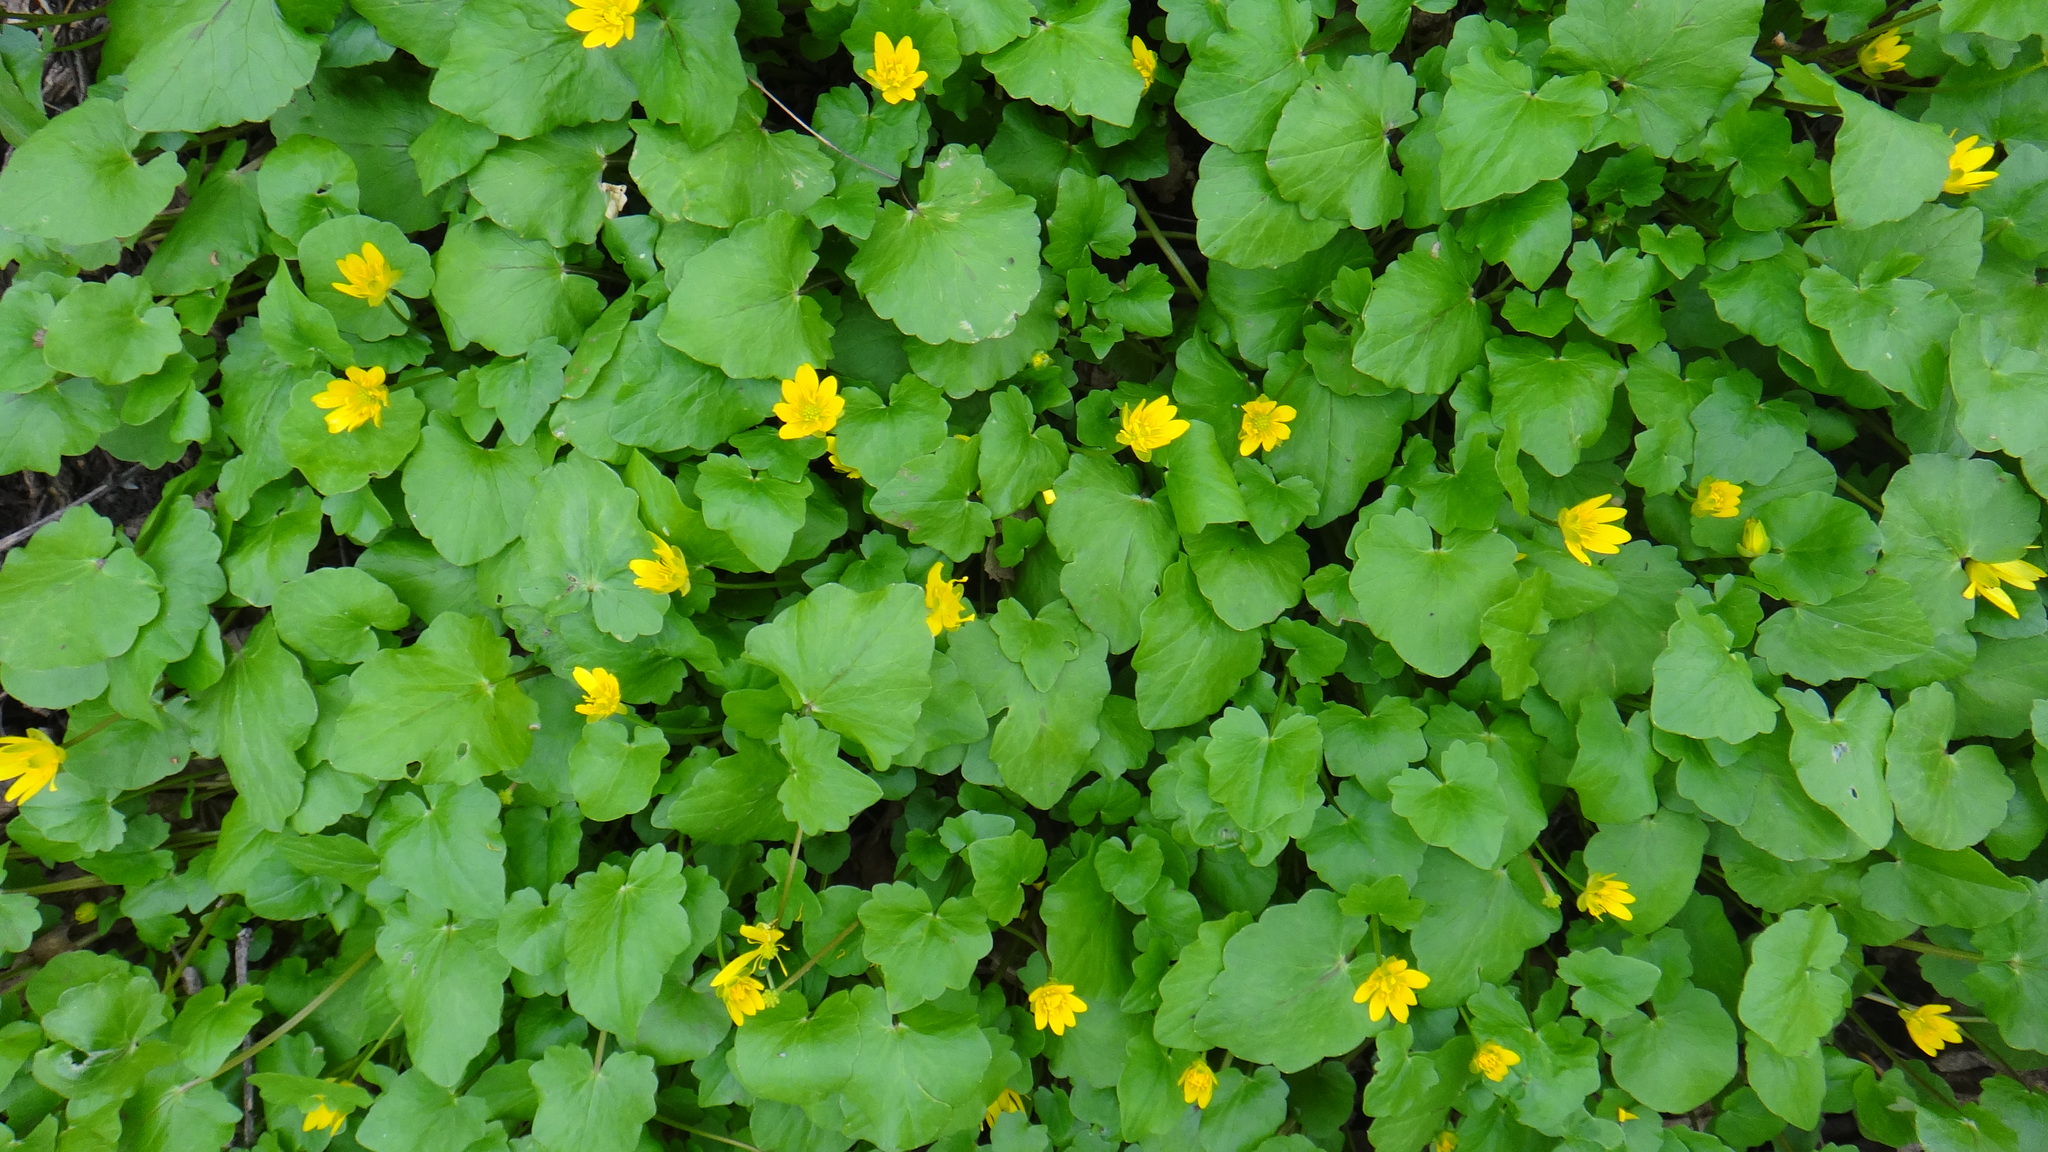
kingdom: Plantae
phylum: Tracheophyta
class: Magnoliopsida
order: Ranunculales
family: Ranunculaceae
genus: Ficaria
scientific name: Ficaria verna
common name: Lesser celandine
